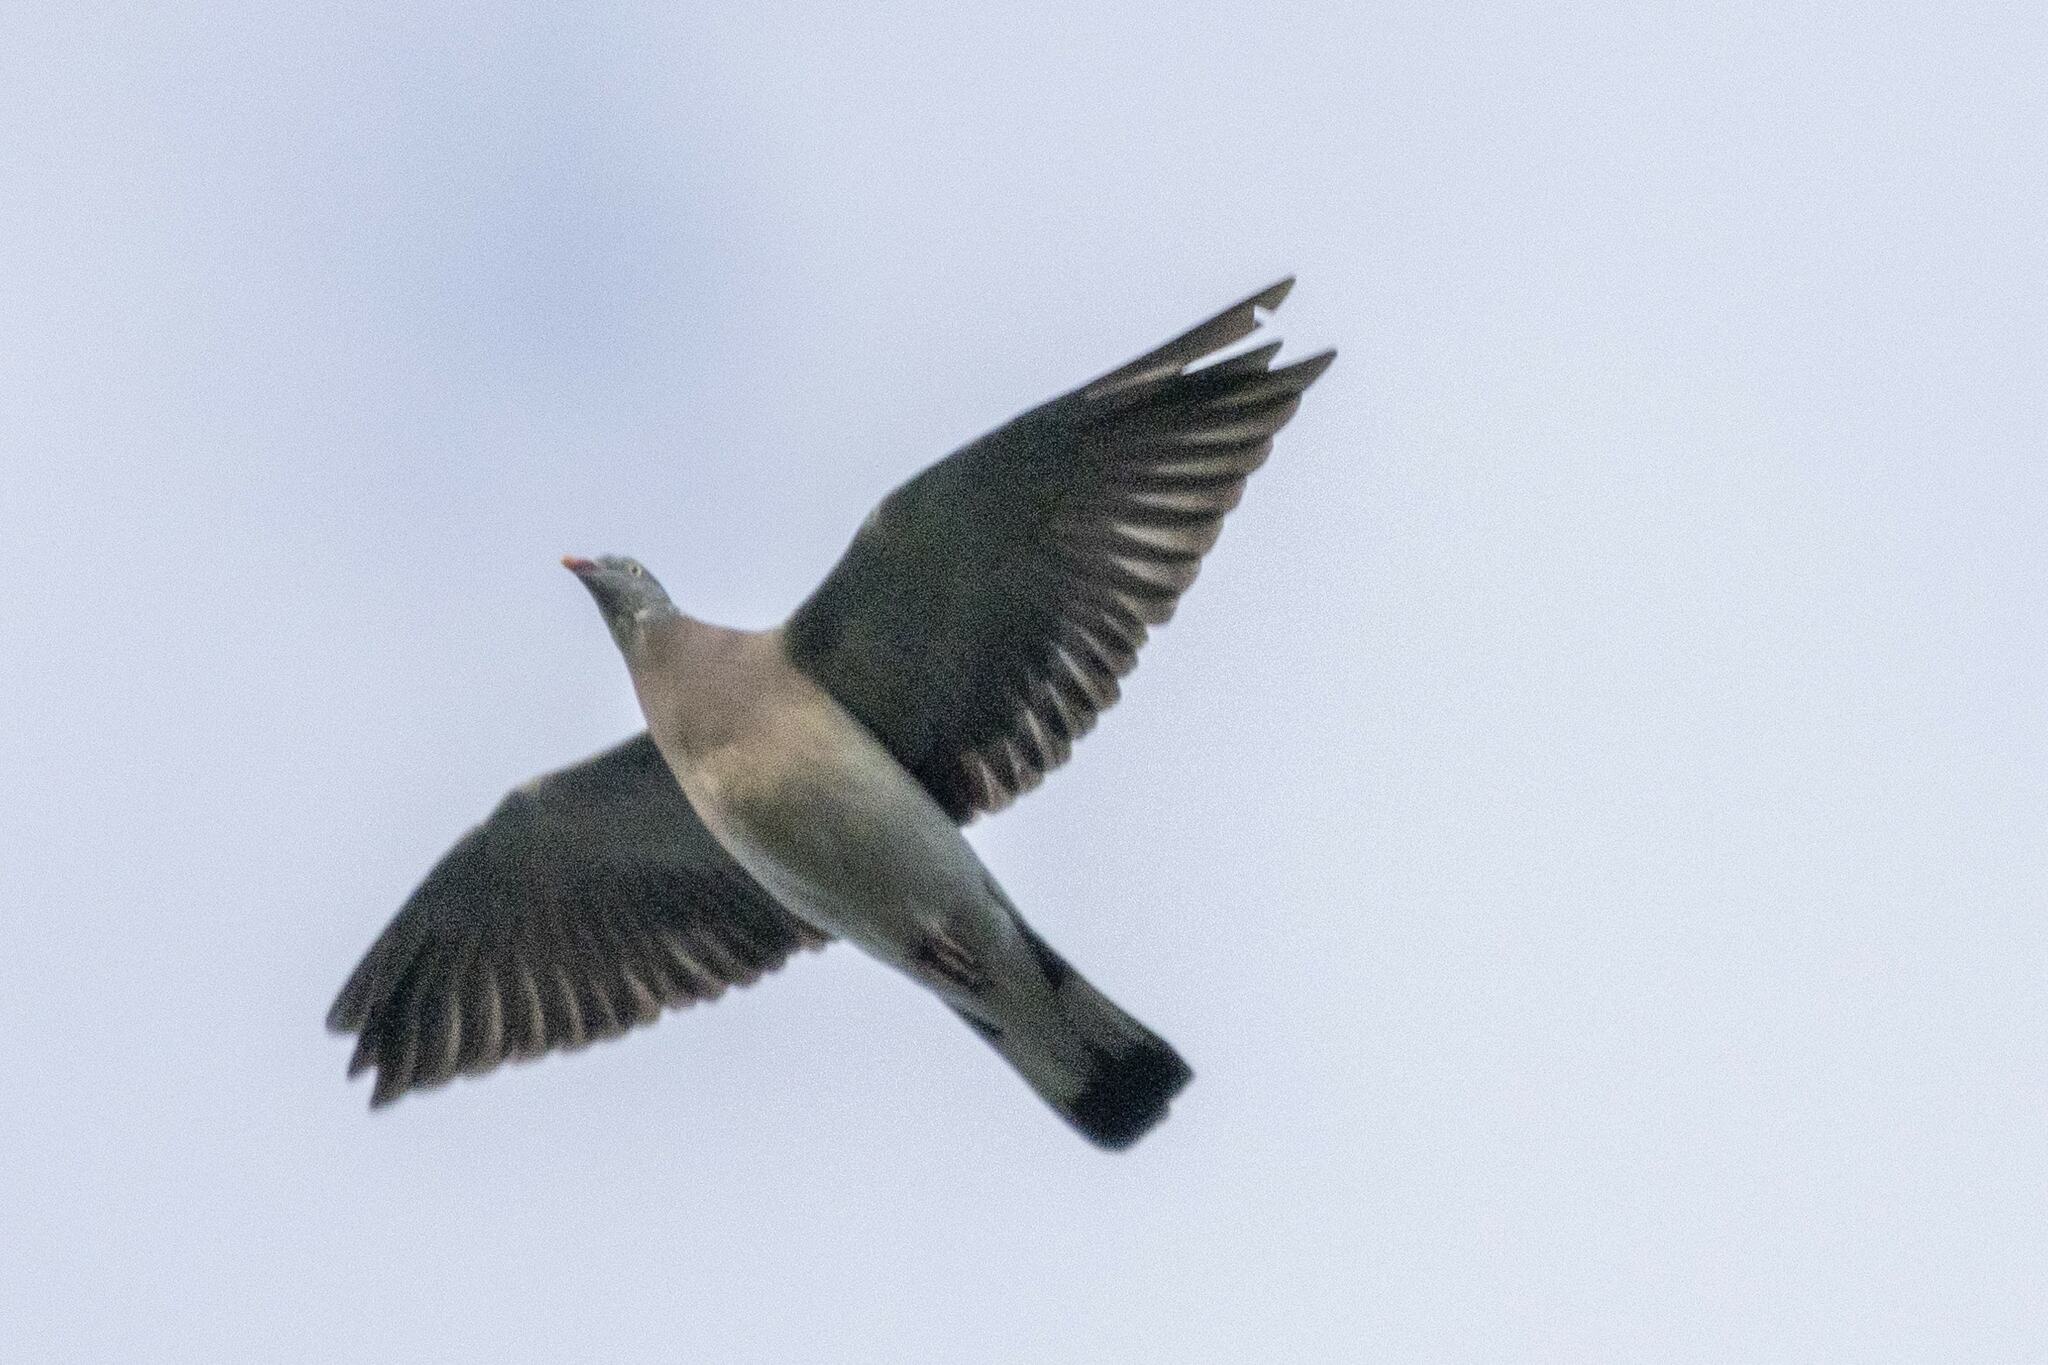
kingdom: Animalia
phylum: Chordata
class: Aves
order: Columbiformes
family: Columbidae
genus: Columba
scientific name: Columba palumbus
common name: Common wood pigeon
